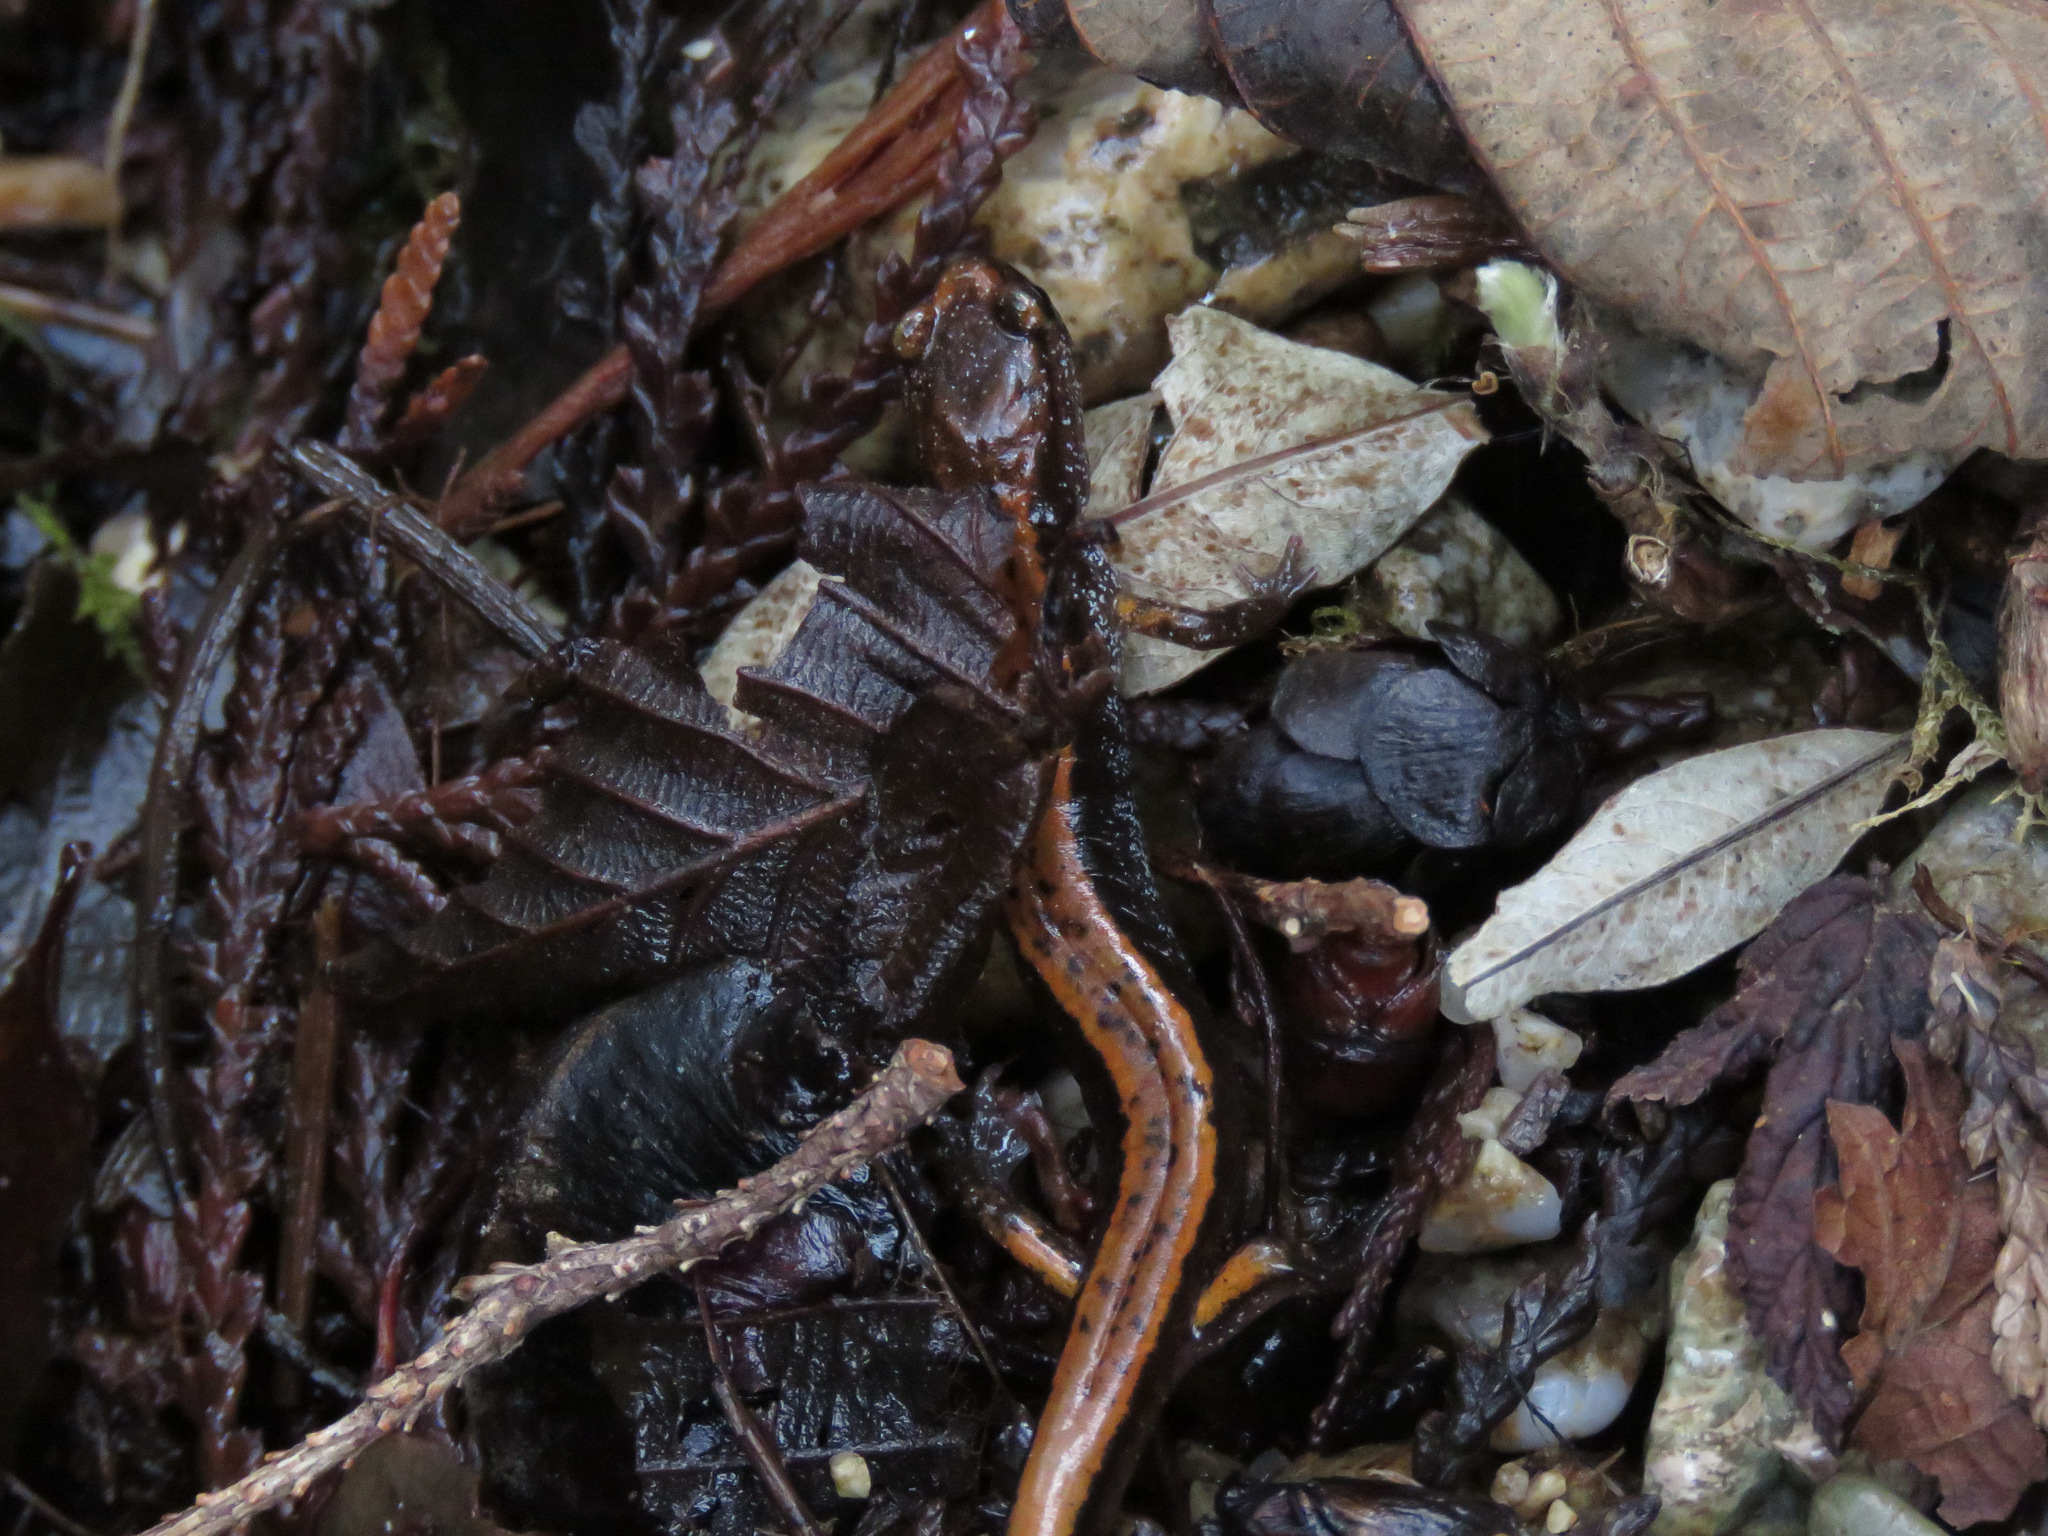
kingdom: Animalia
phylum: Chordata
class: Amphibia
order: Caudata
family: Plethodontidae
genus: Plethodon
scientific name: Plethodon vehiculum
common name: Western red-backed salamander
